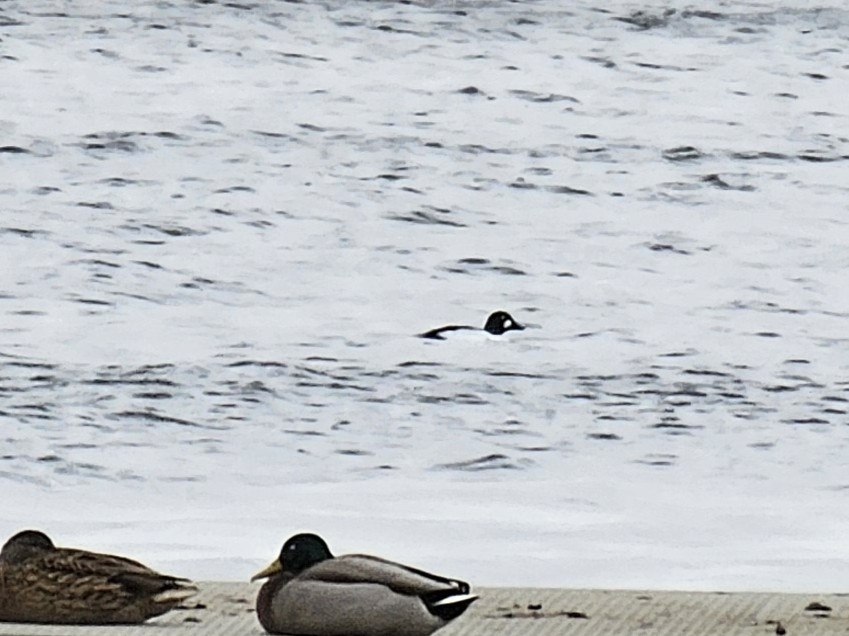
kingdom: Animalia
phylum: Chordata
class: Aves
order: Anseriformes
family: Anatidae
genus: Bucephala
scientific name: Bucephala clangula
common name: Common goldeneye
